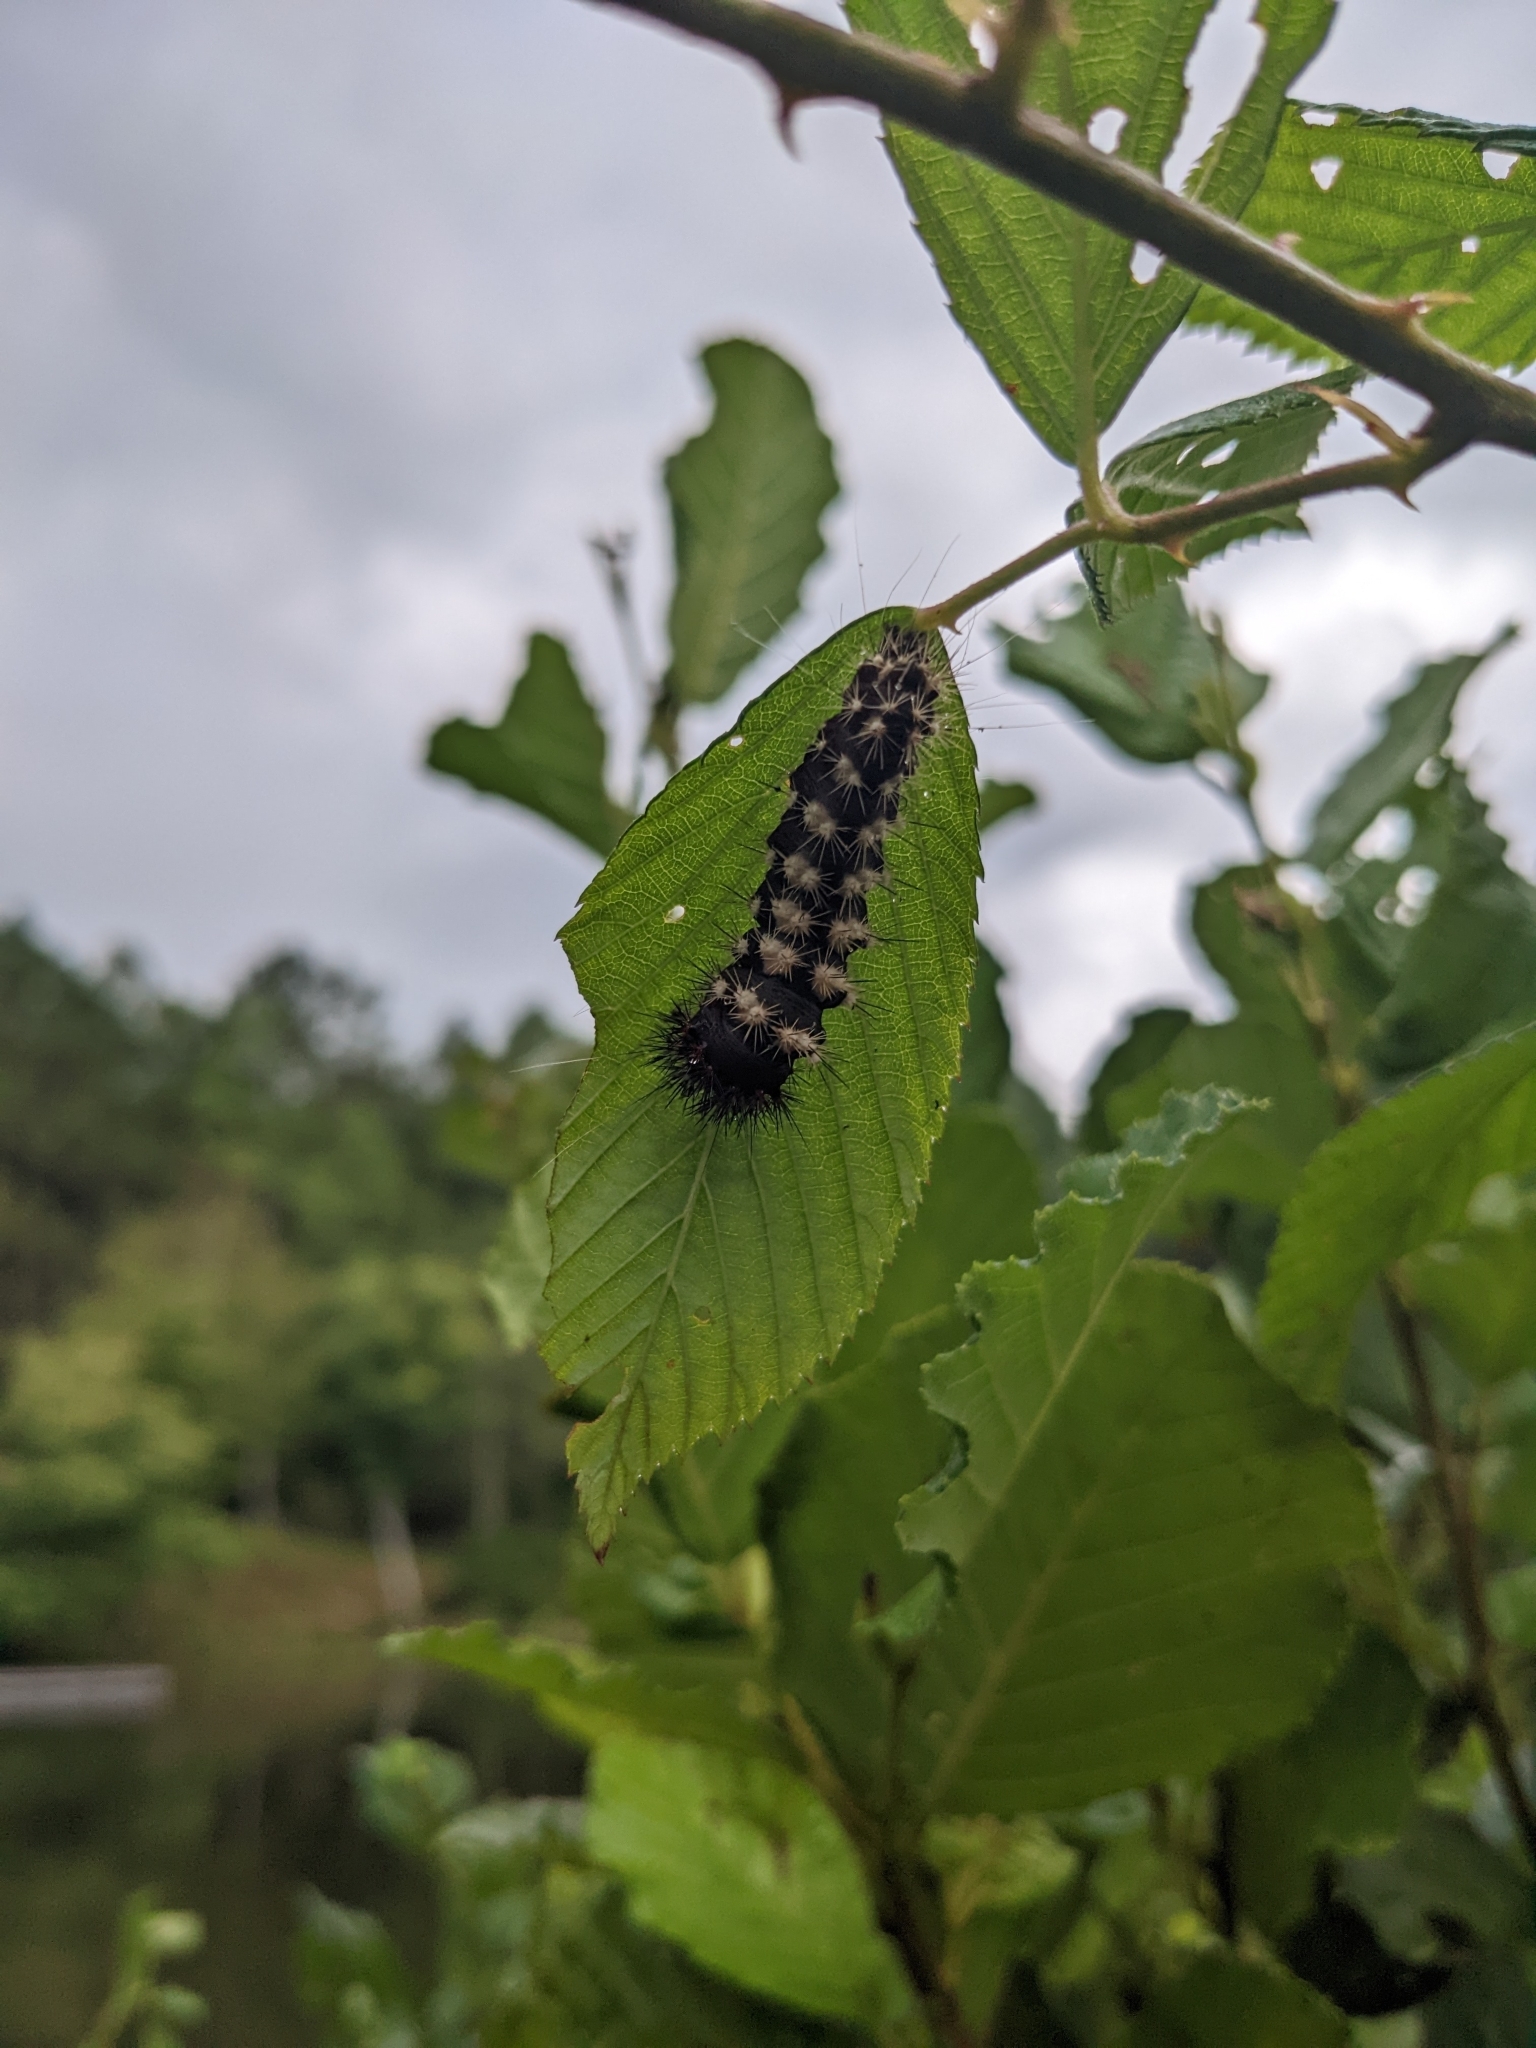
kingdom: Animalia
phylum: Arthropoda
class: Insecta
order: Lepidoptera
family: Noctuidae
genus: Acronicta
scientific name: Acronicta longa
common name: Long-winged dagger
